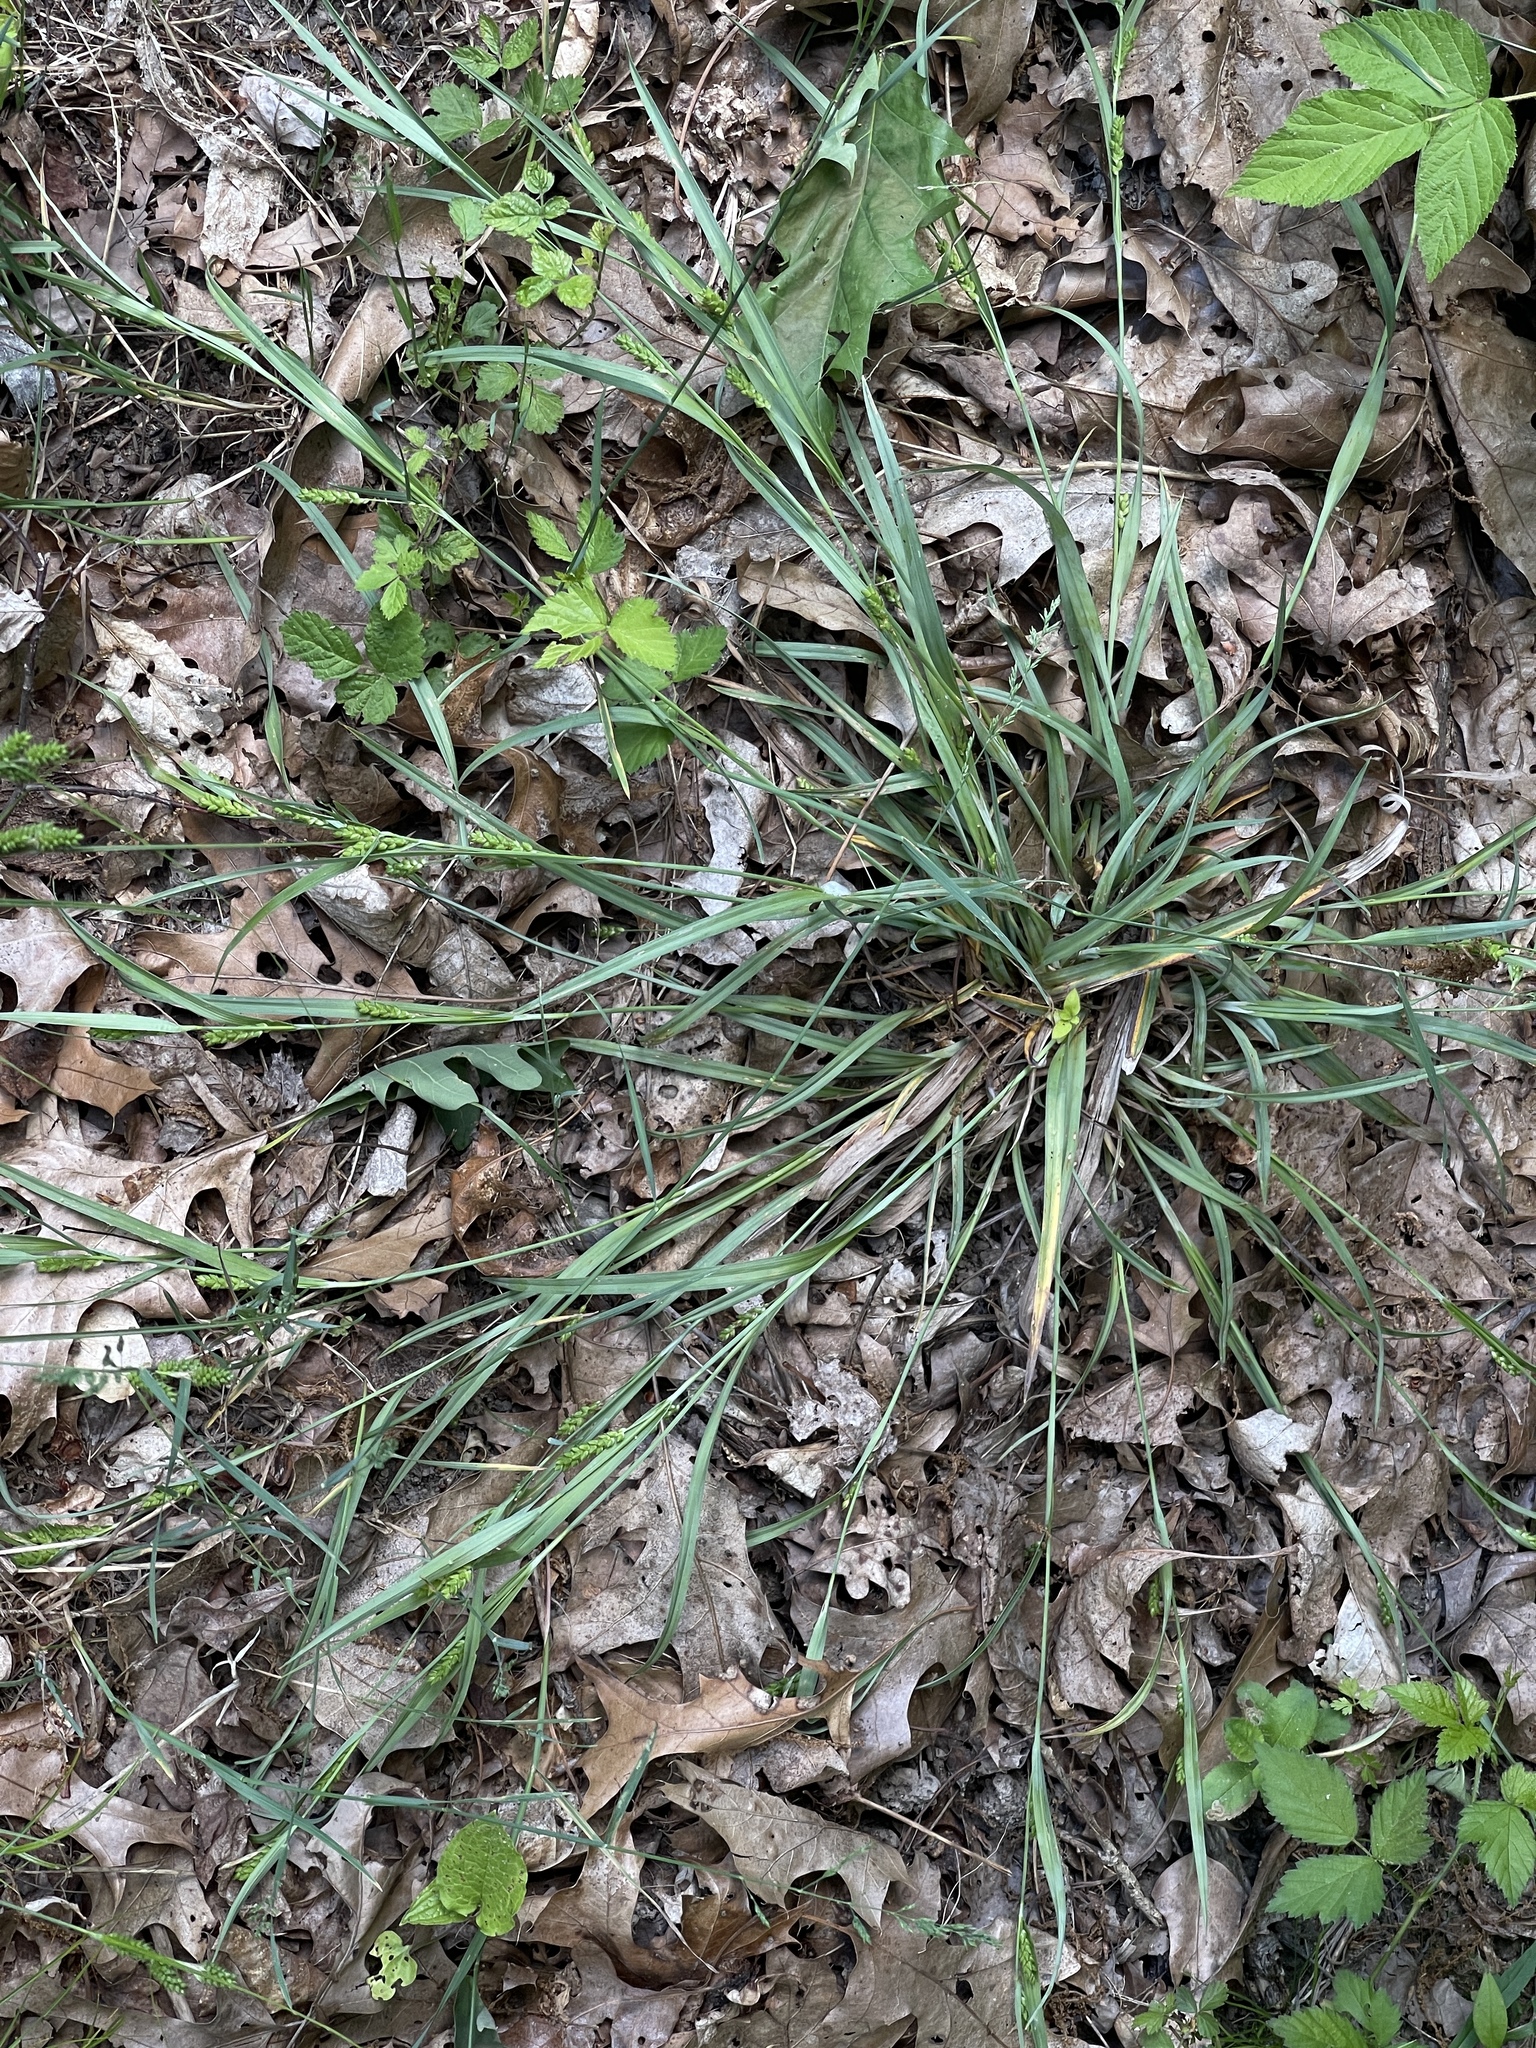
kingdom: Plantae
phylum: Tracheophyta
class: Liliopsida
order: Poales
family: Cyperaceae
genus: Carex
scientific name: Carex glaucodea
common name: Blue sedge
